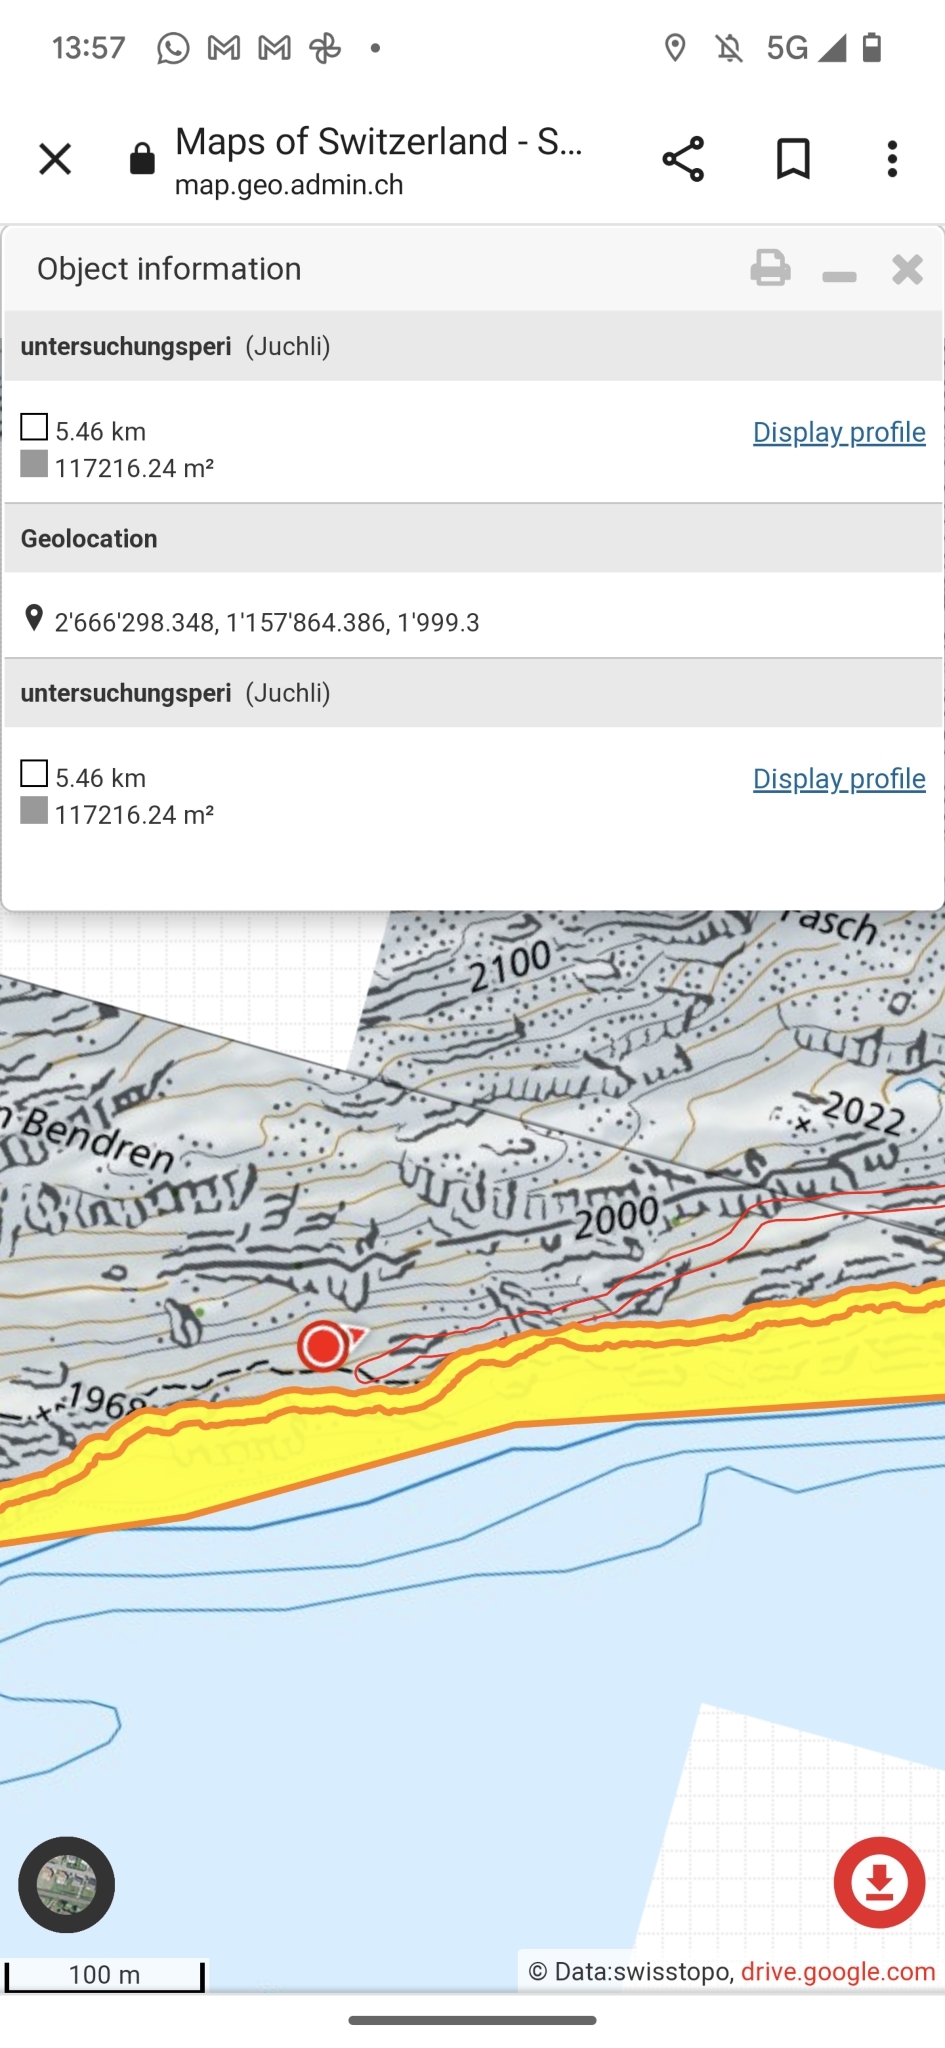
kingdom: Animalia
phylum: Arthropoda
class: Insecta
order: Hymenoptera
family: Formicidae
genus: Formica
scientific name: Formica
